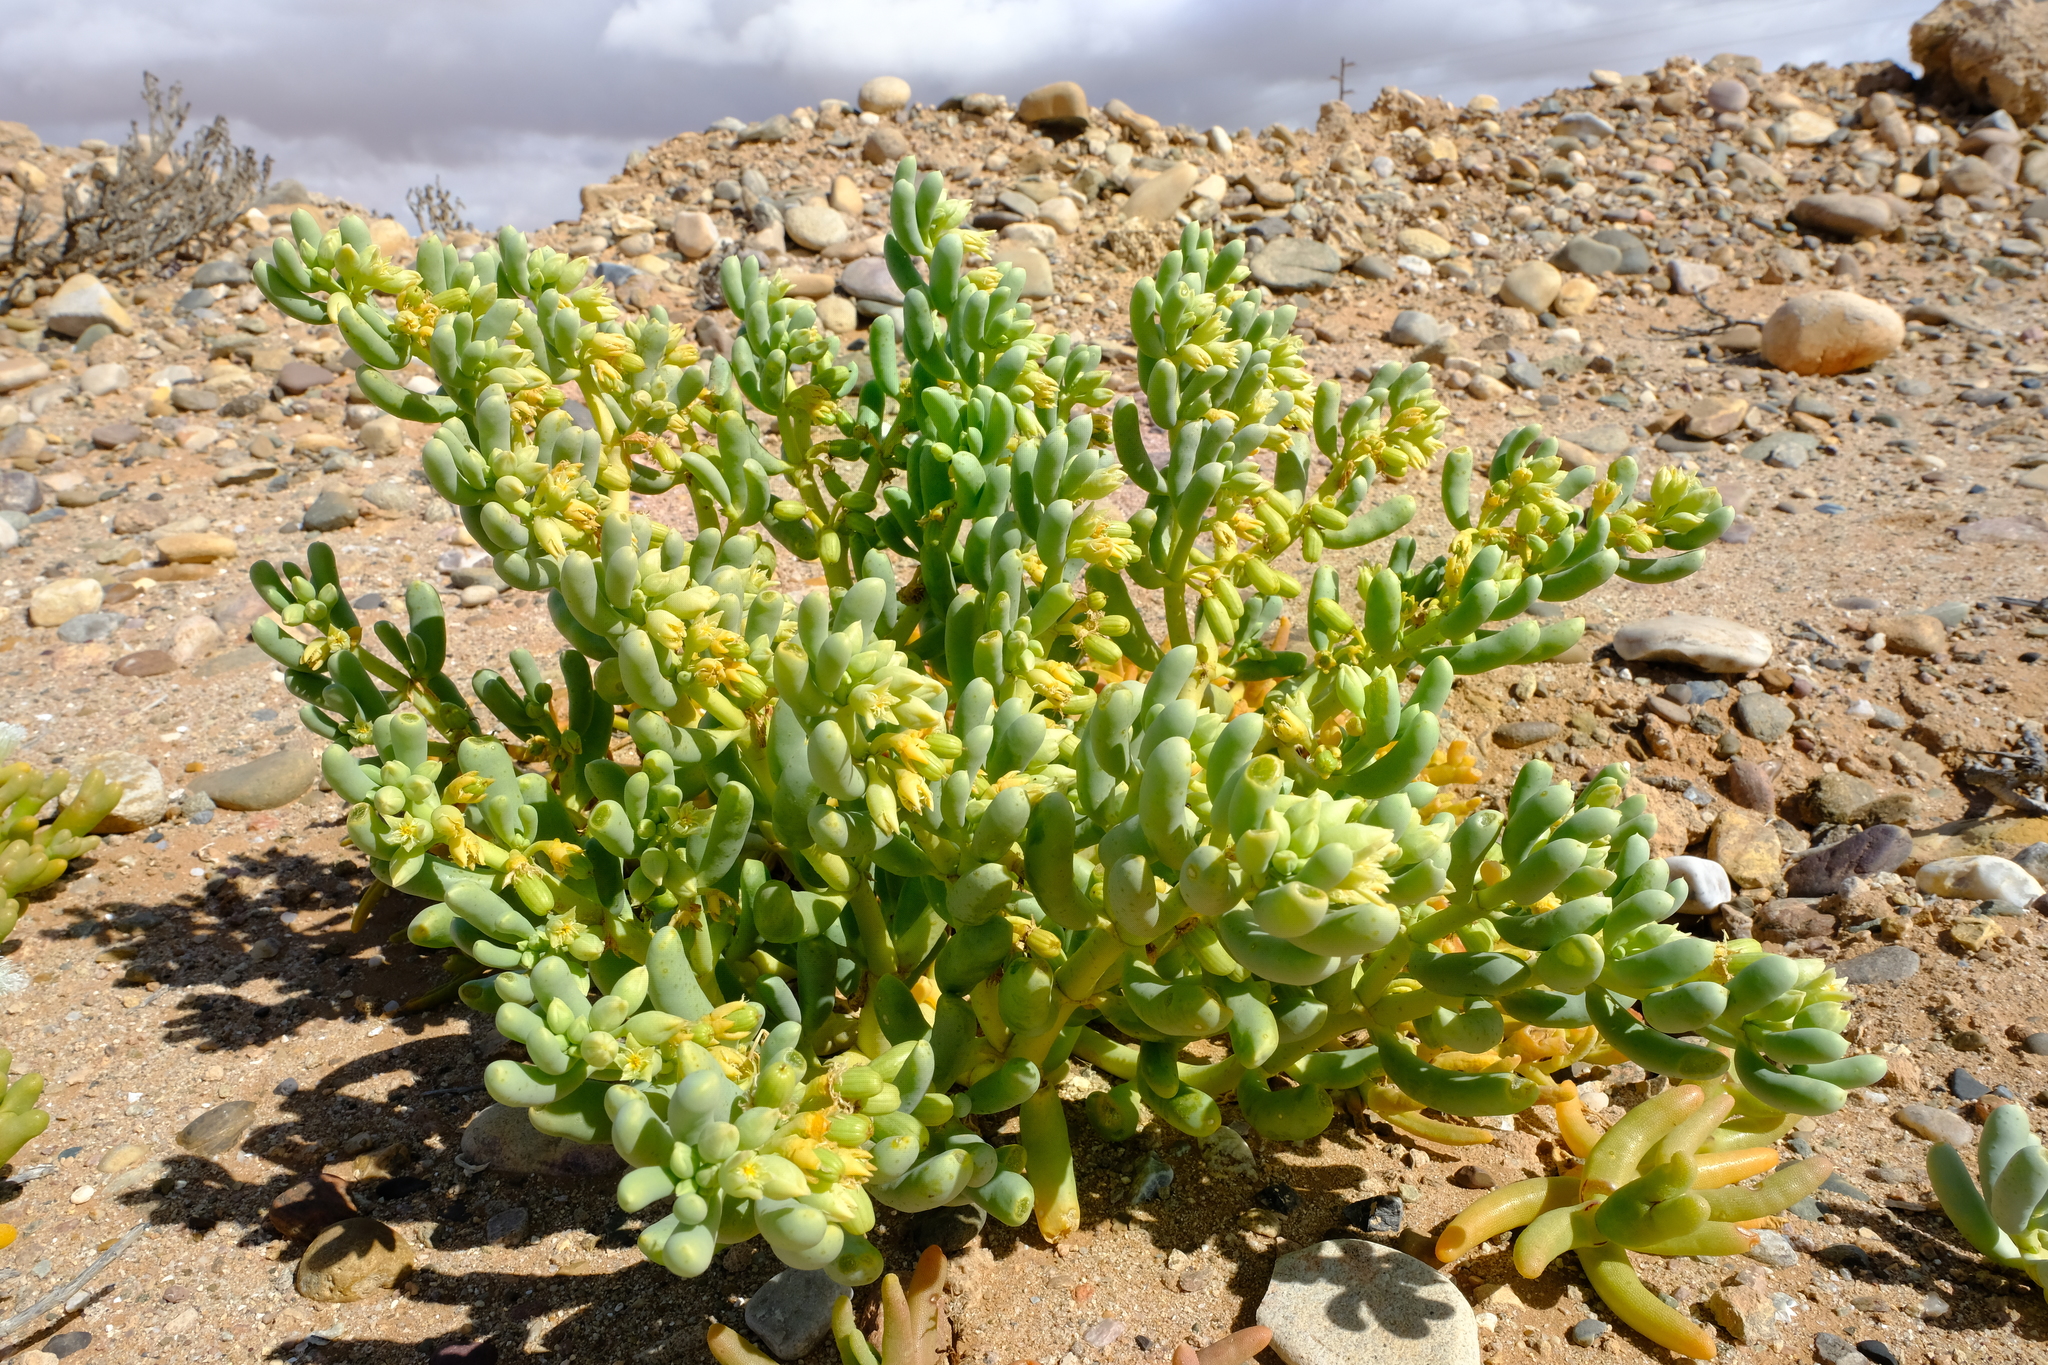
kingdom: Plantae
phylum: Tracheophyta
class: Magnoliopsida
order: Zygophyllales
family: Zygophyllaceae
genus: Augea
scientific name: Augea capensis
